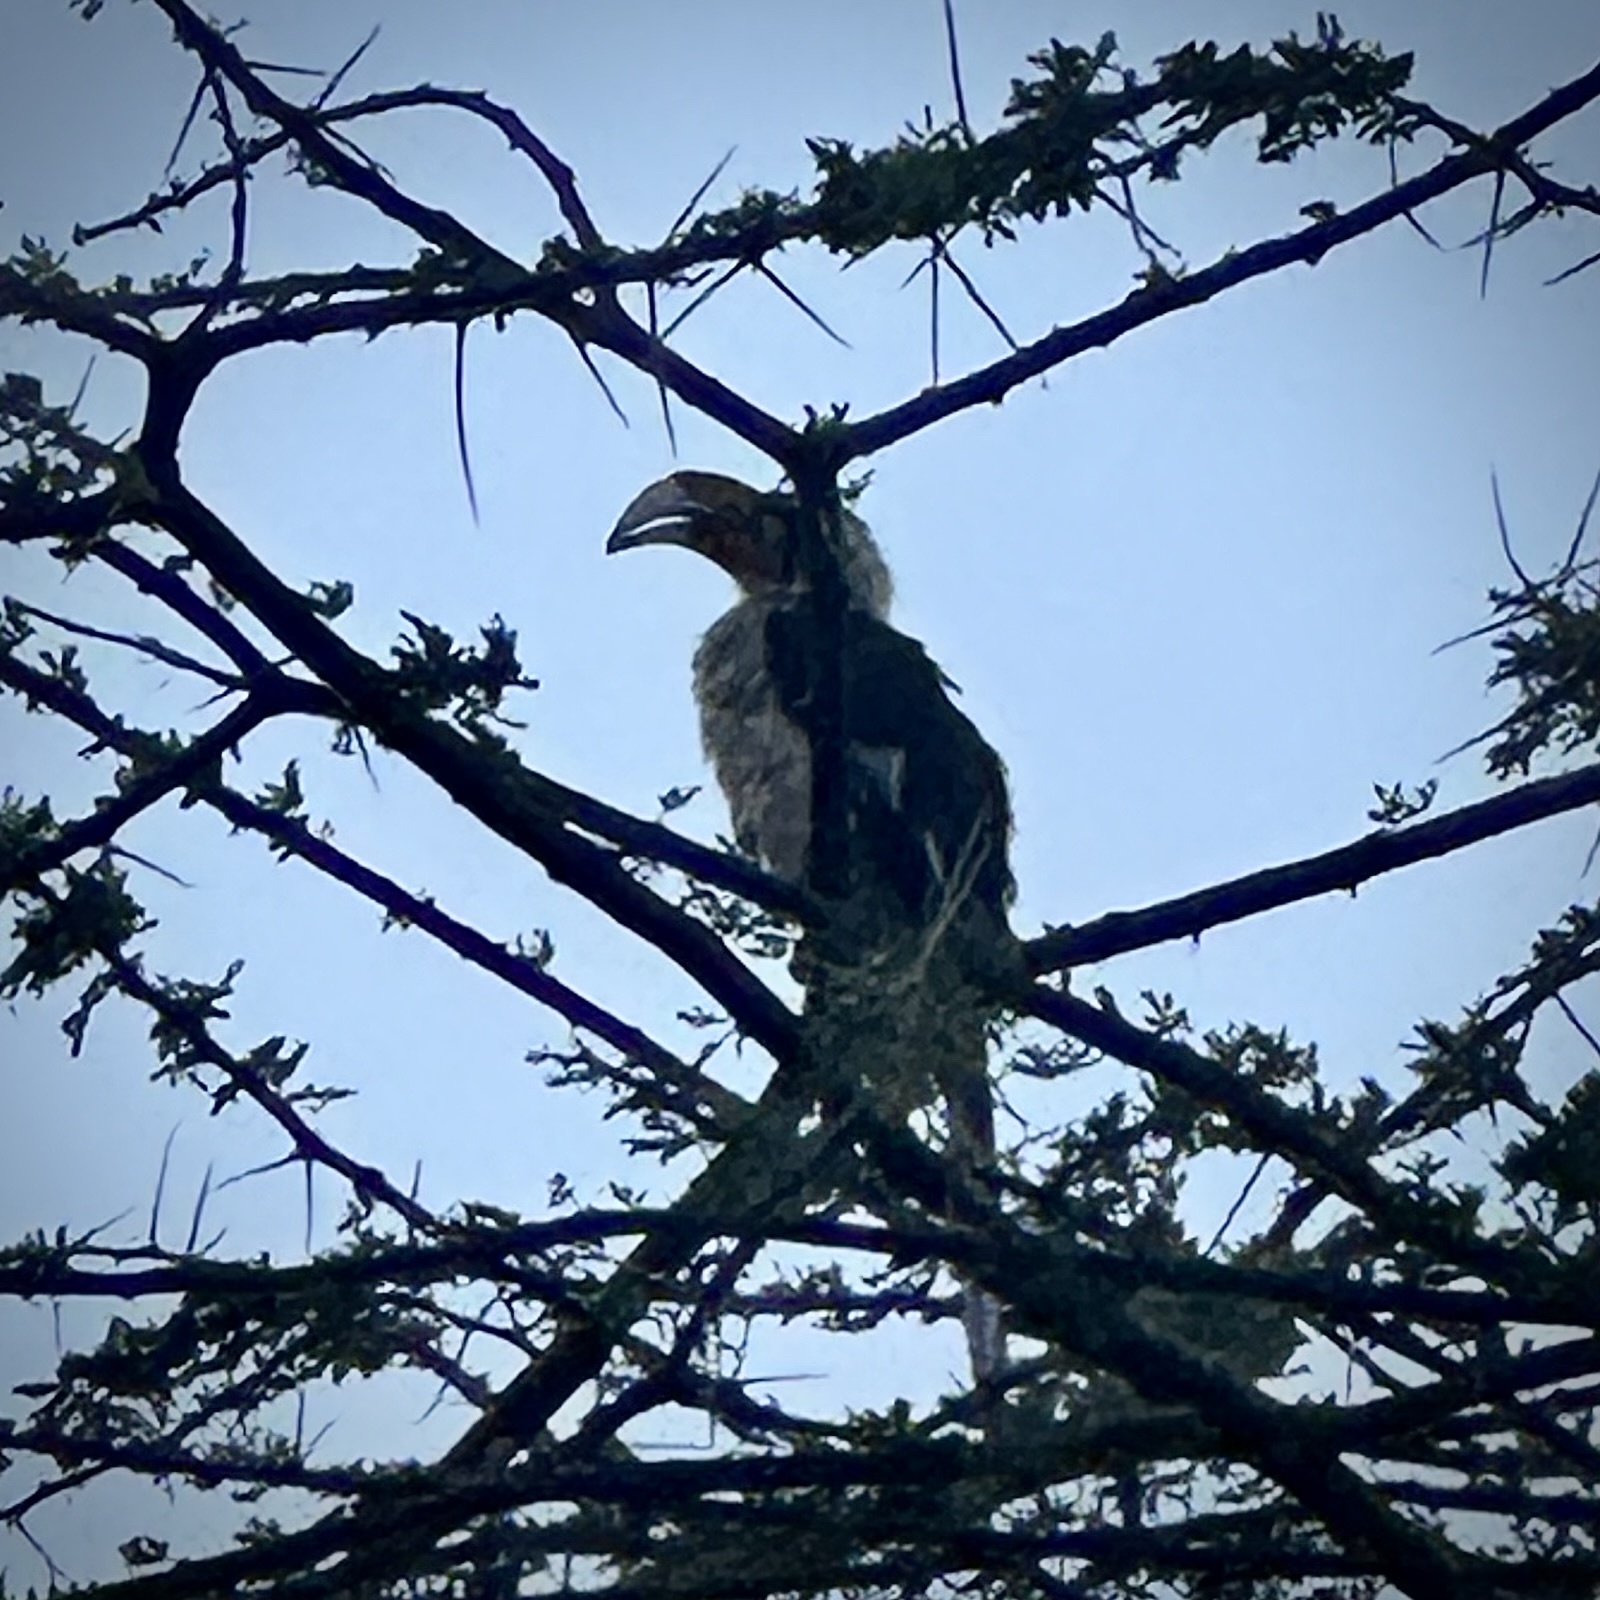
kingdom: Animalia
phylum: Chordata
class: Aves
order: Bucerotiformes
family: Bucerotidae
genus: Tockus
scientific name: Tockus deckeni
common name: Von der decken's hornbill
